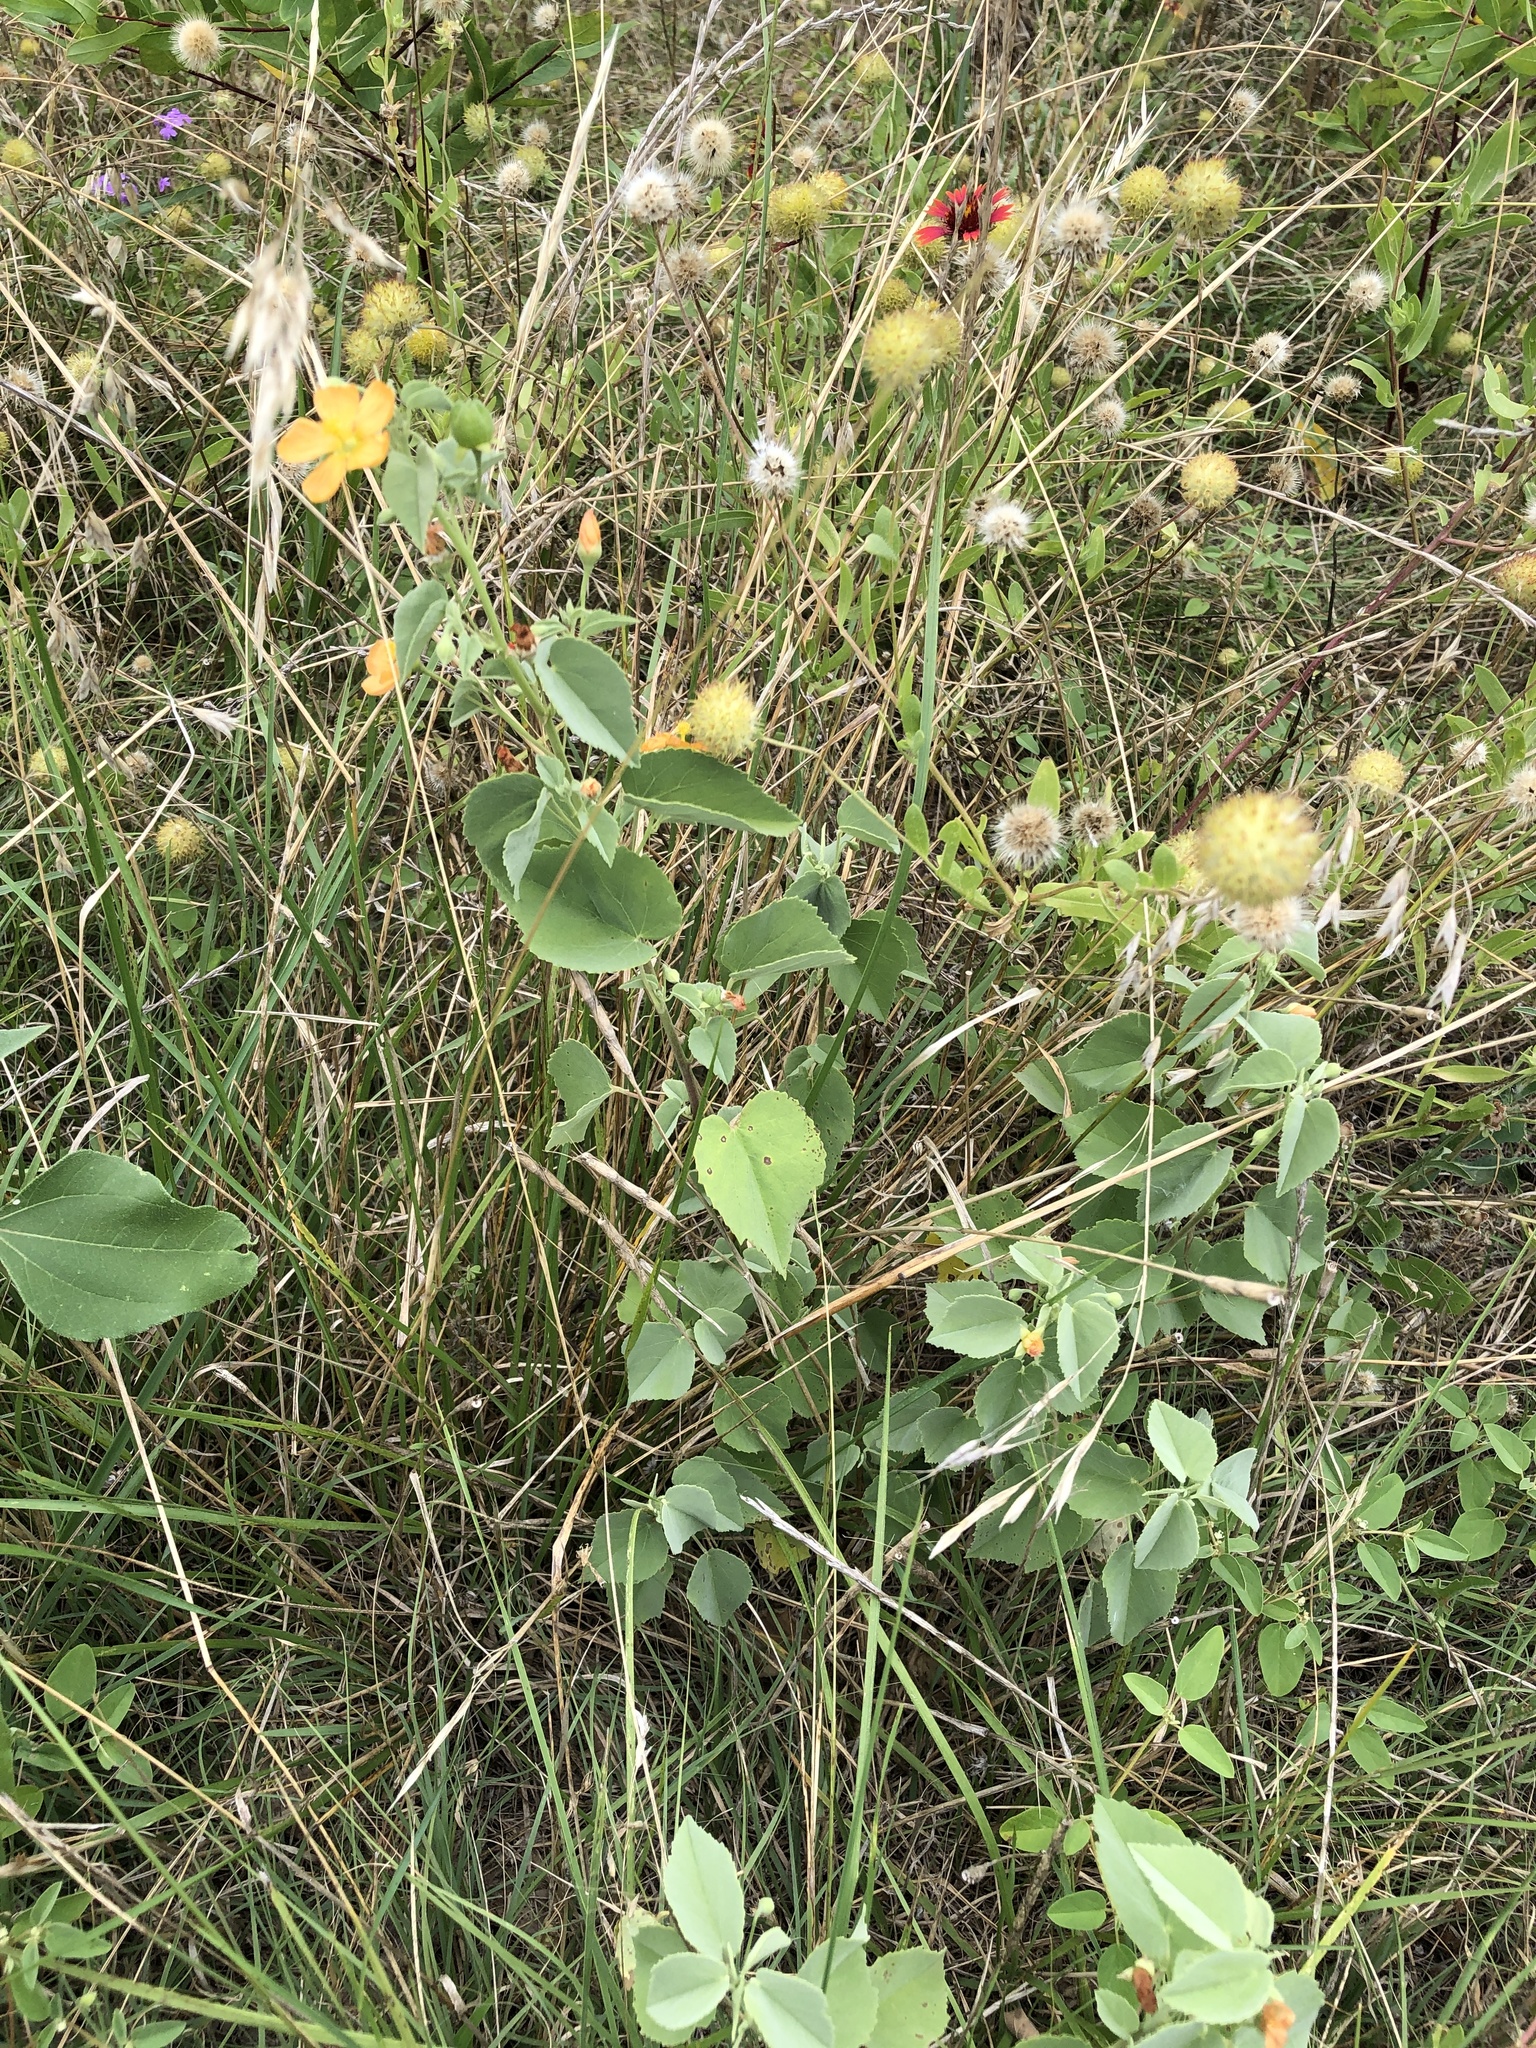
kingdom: Plantae
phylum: Tracheophyta
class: Magnoliopsida
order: Malvales
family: Malvaceae
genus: Abutilon
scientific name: Abutilon fruticosum
